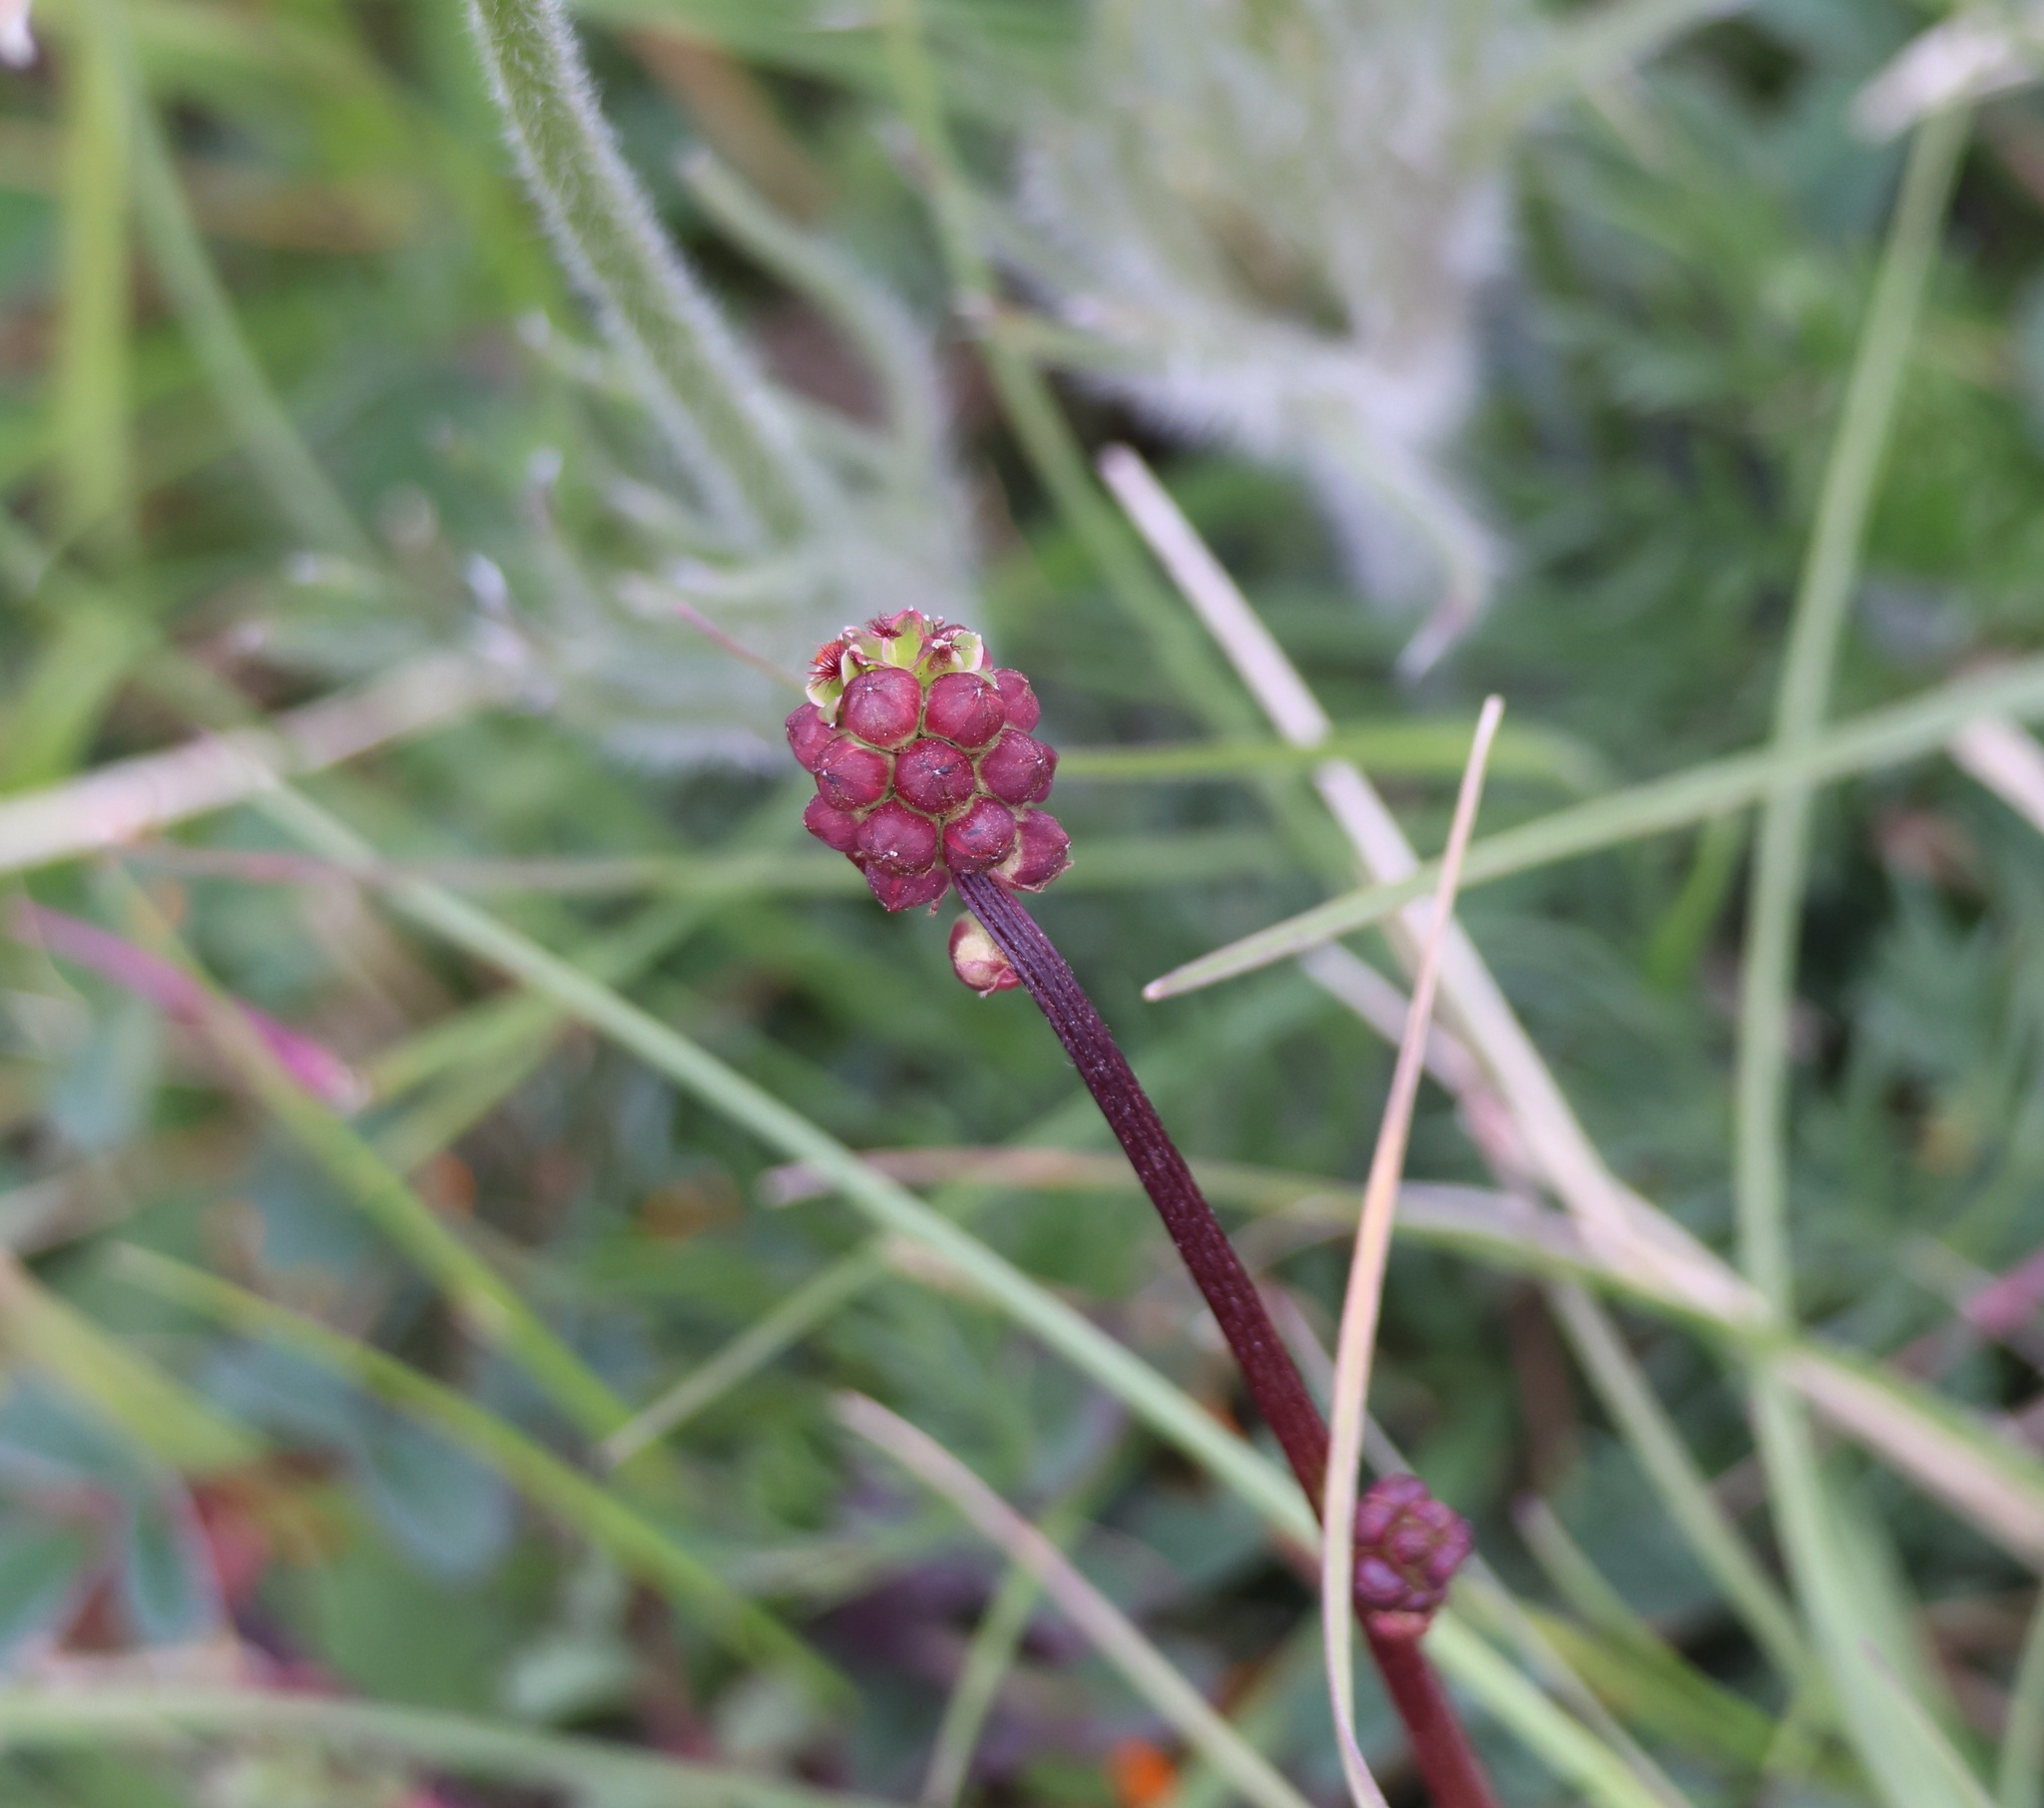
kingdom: Plantae
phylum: Tracheophyta
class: Magnoliopsida
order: Rosales
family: Rosaceae
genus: Poterium
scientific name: Poterium sanguisorba
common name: Salad burnet
